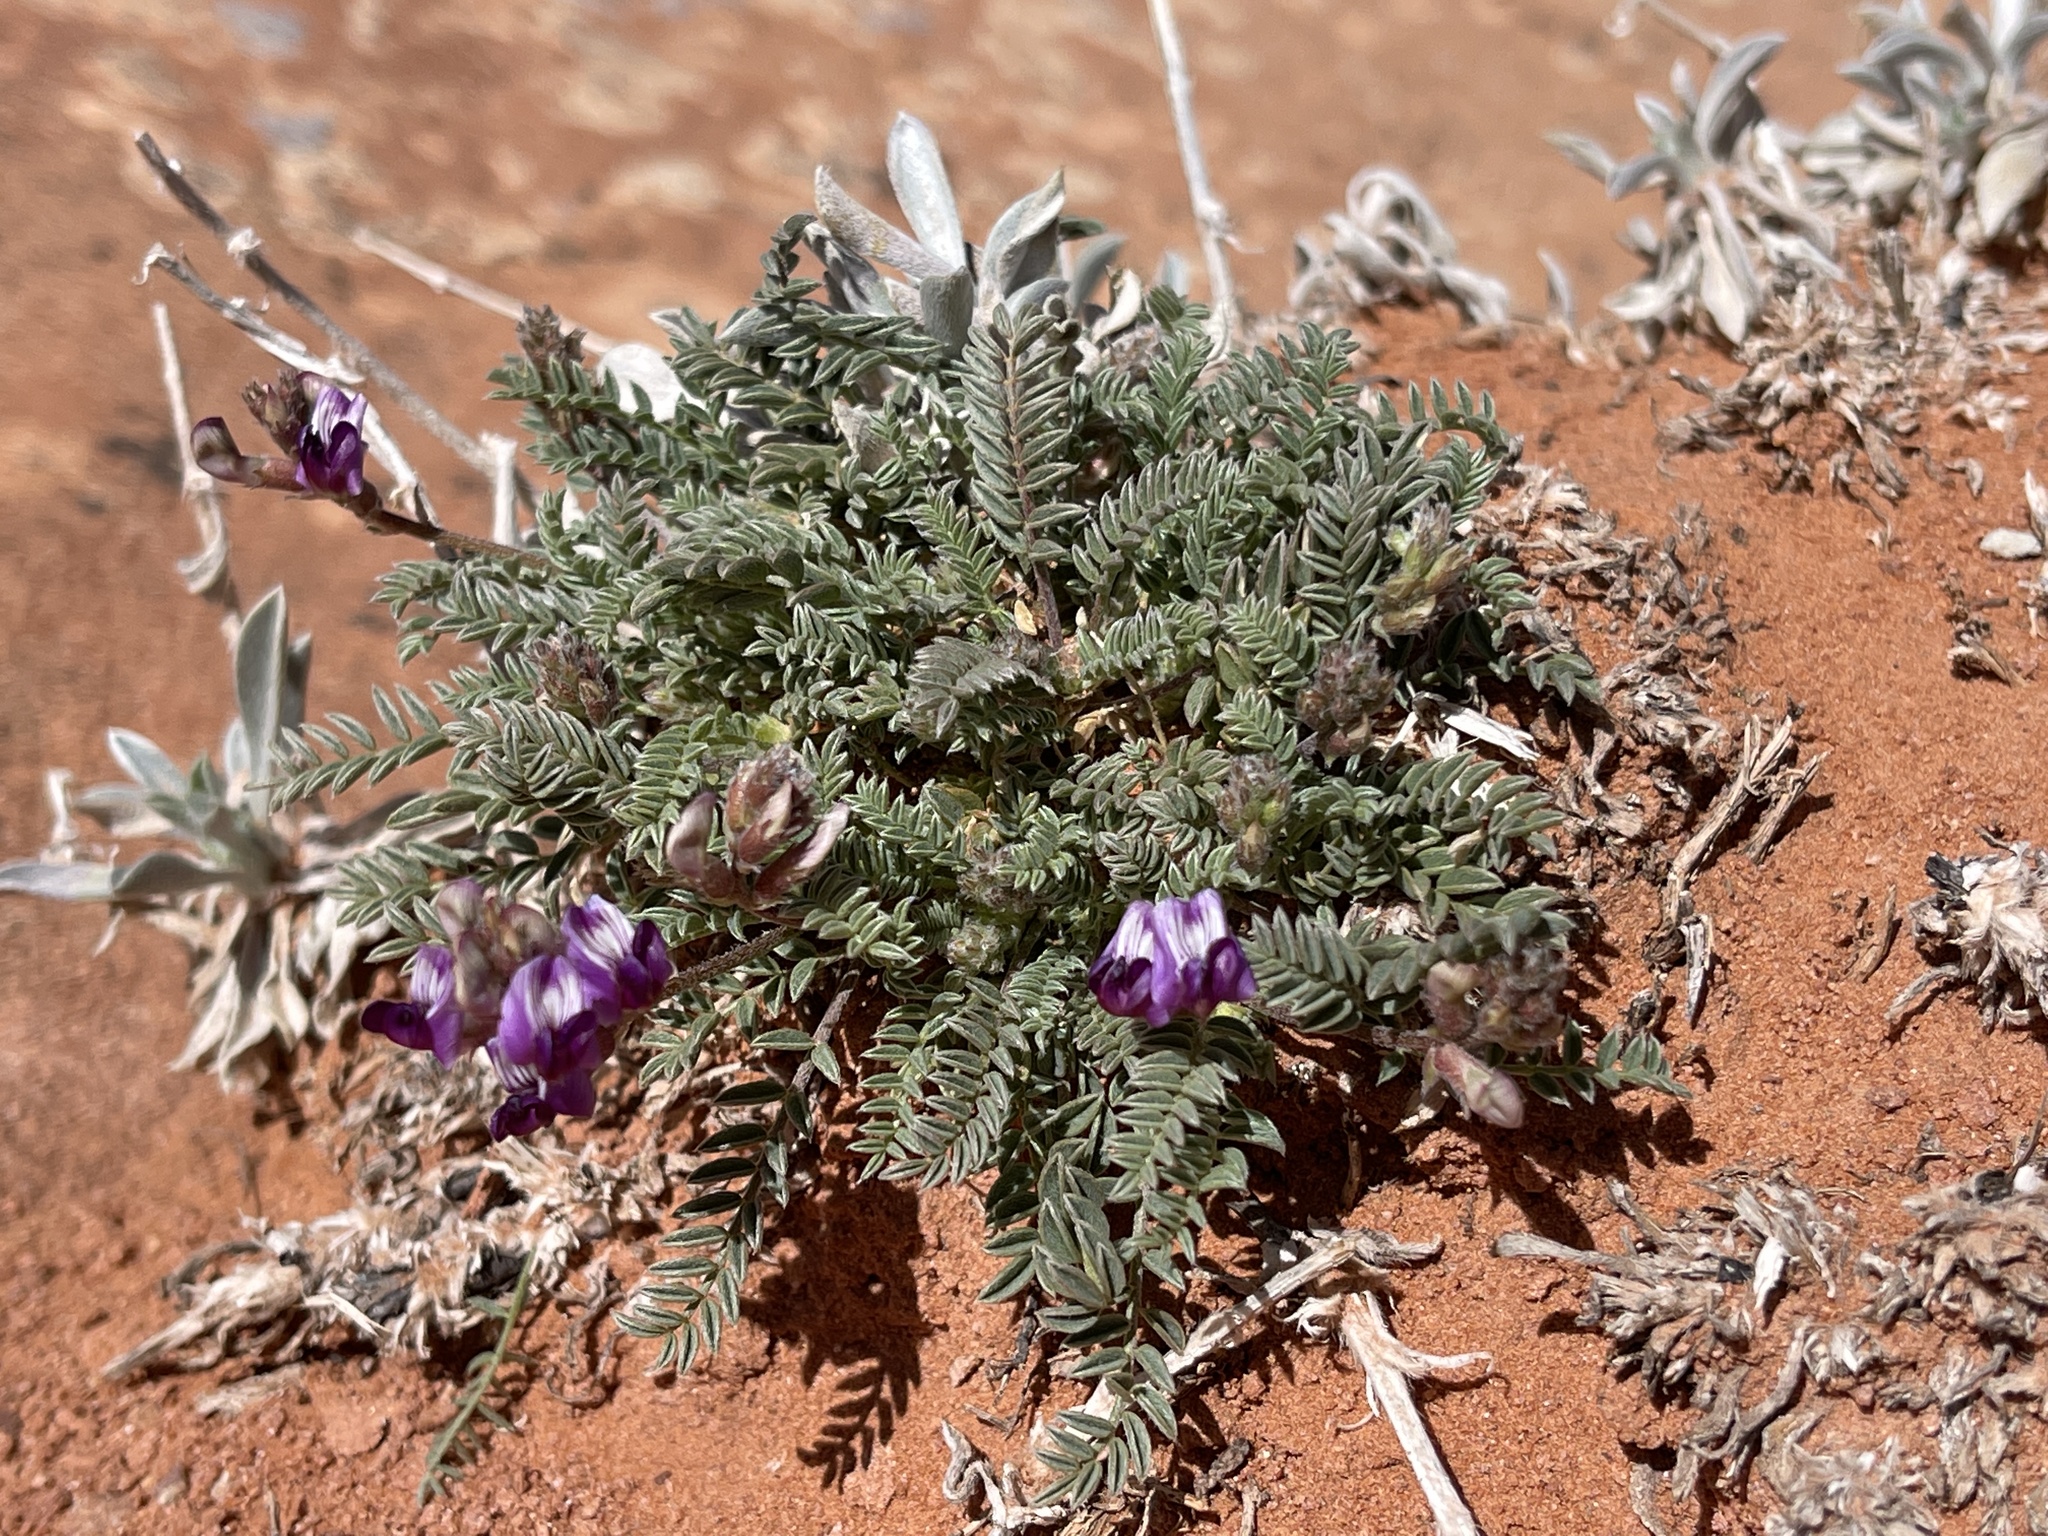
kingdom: Plantae
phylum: Tracheophyta
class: Magnoliopsida
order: Fabales
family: Fabaceae
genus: Astragalus
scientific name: Astragalus desperatus
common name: Rimrock milk-vetch
